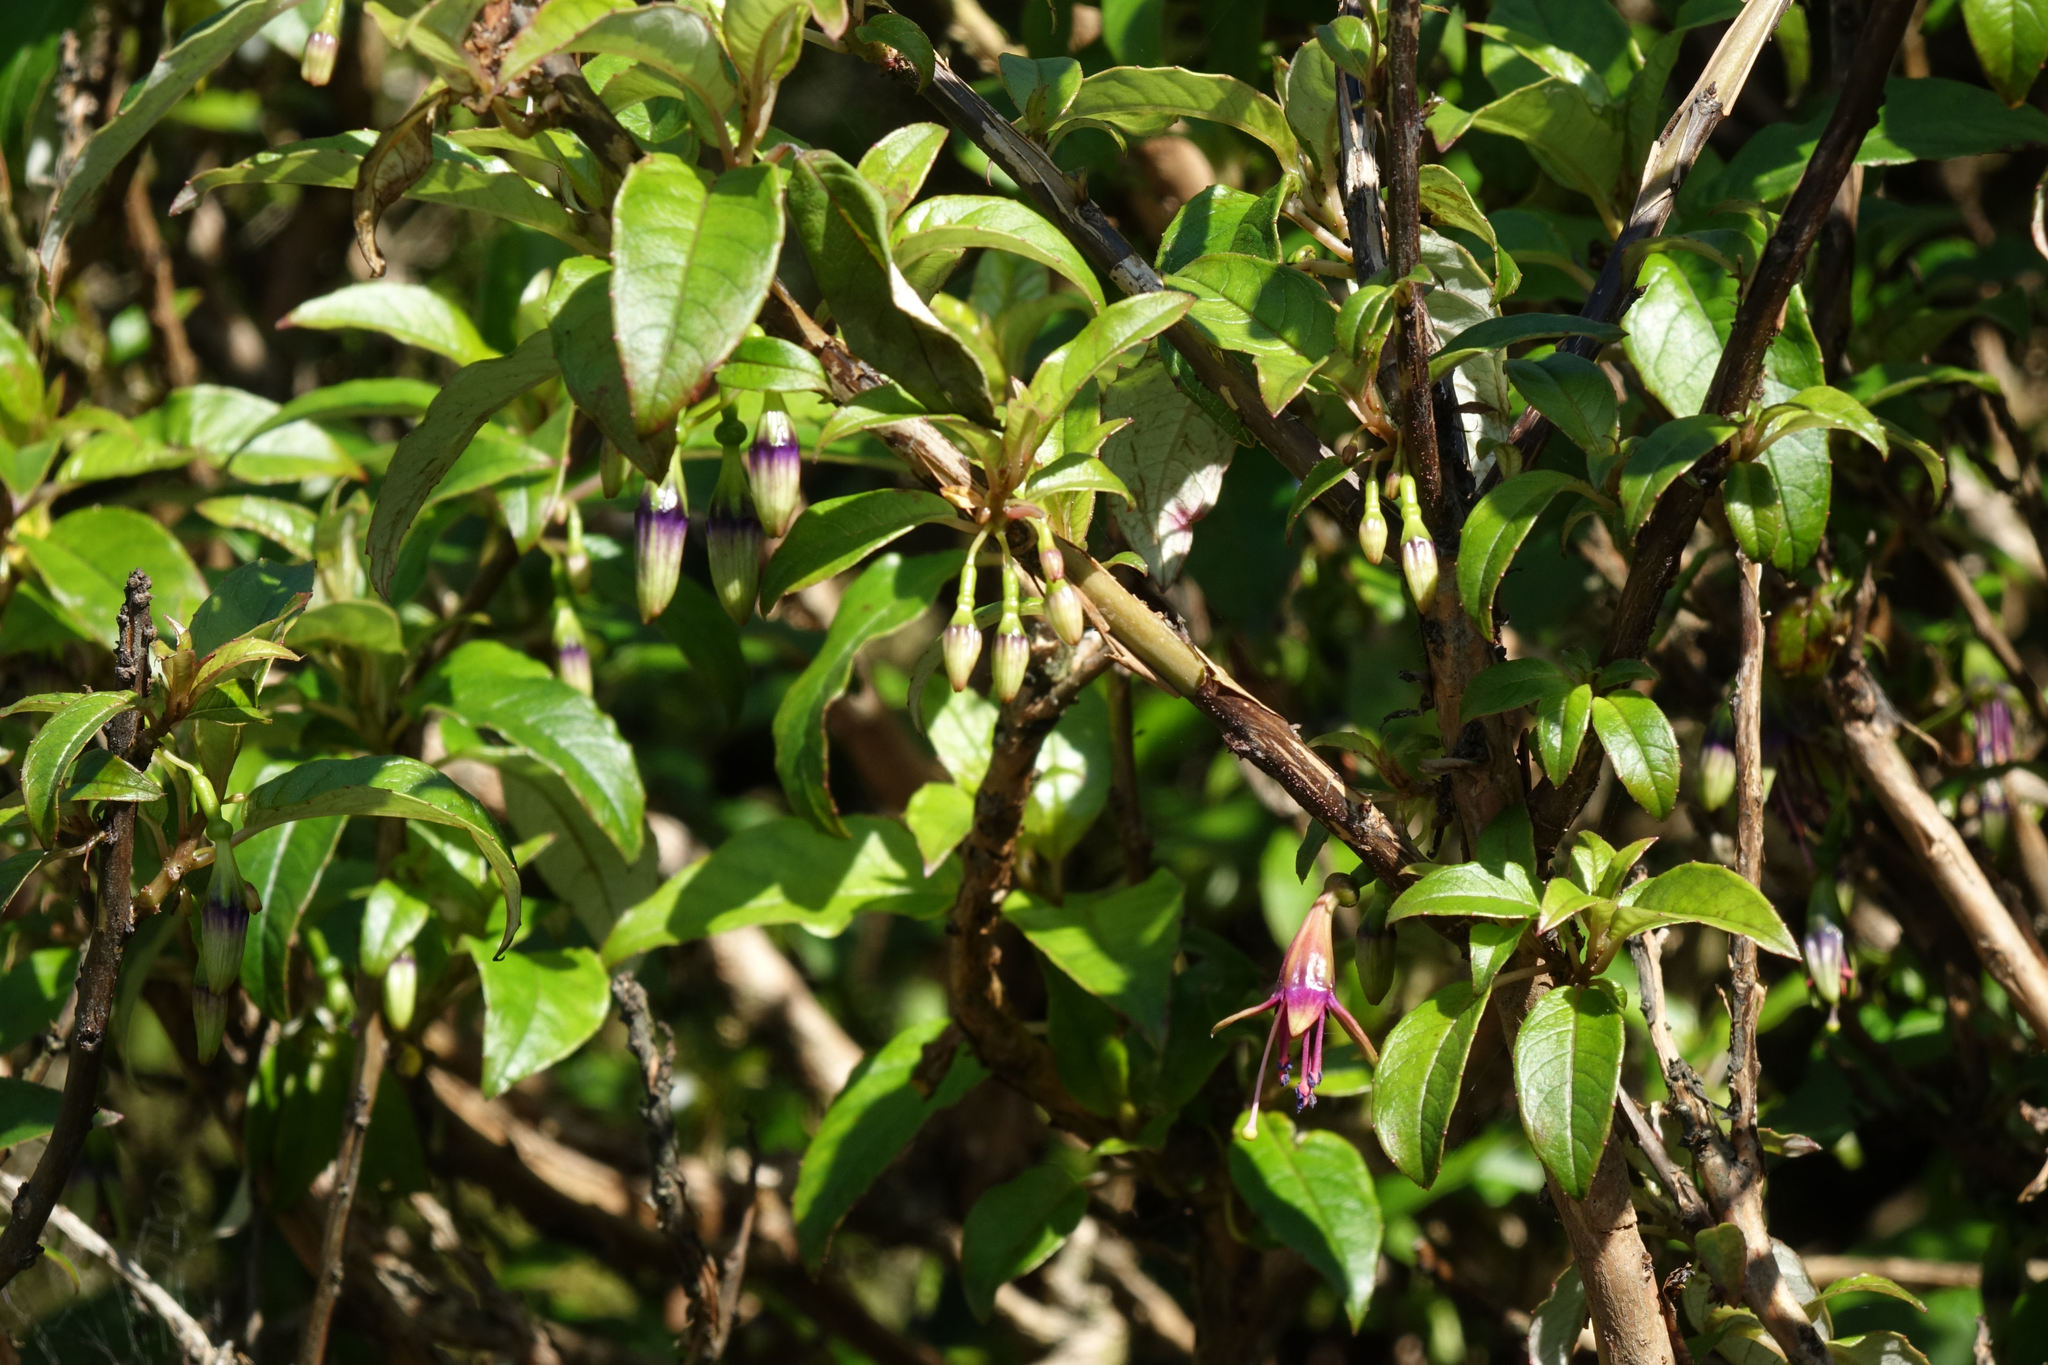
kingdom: Plantae
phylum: Tracheophyta
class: Magnoliopsida
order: Myrtales
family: Onagraceae
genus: Fuchsia
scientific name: Fuchsia excorticata
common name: Tree fuchsia
